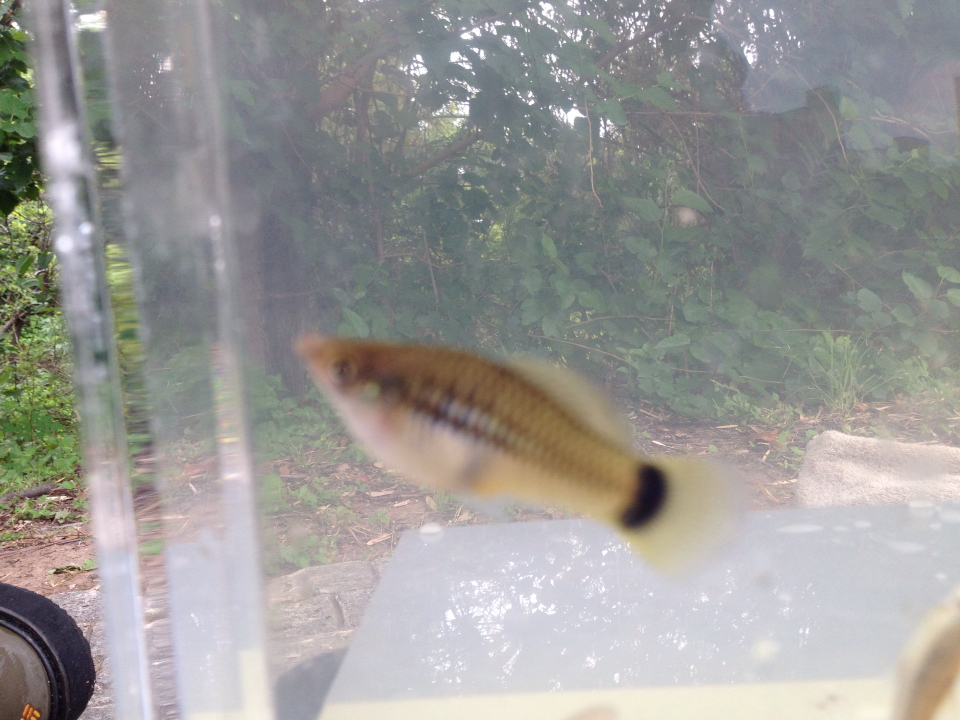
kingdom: Animalia
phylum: Chordata
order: Cyprinodontiformes
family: Poeciliidae
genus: Xiphophorus
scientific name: Xiphophorus variatus
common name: Variable platyfish
